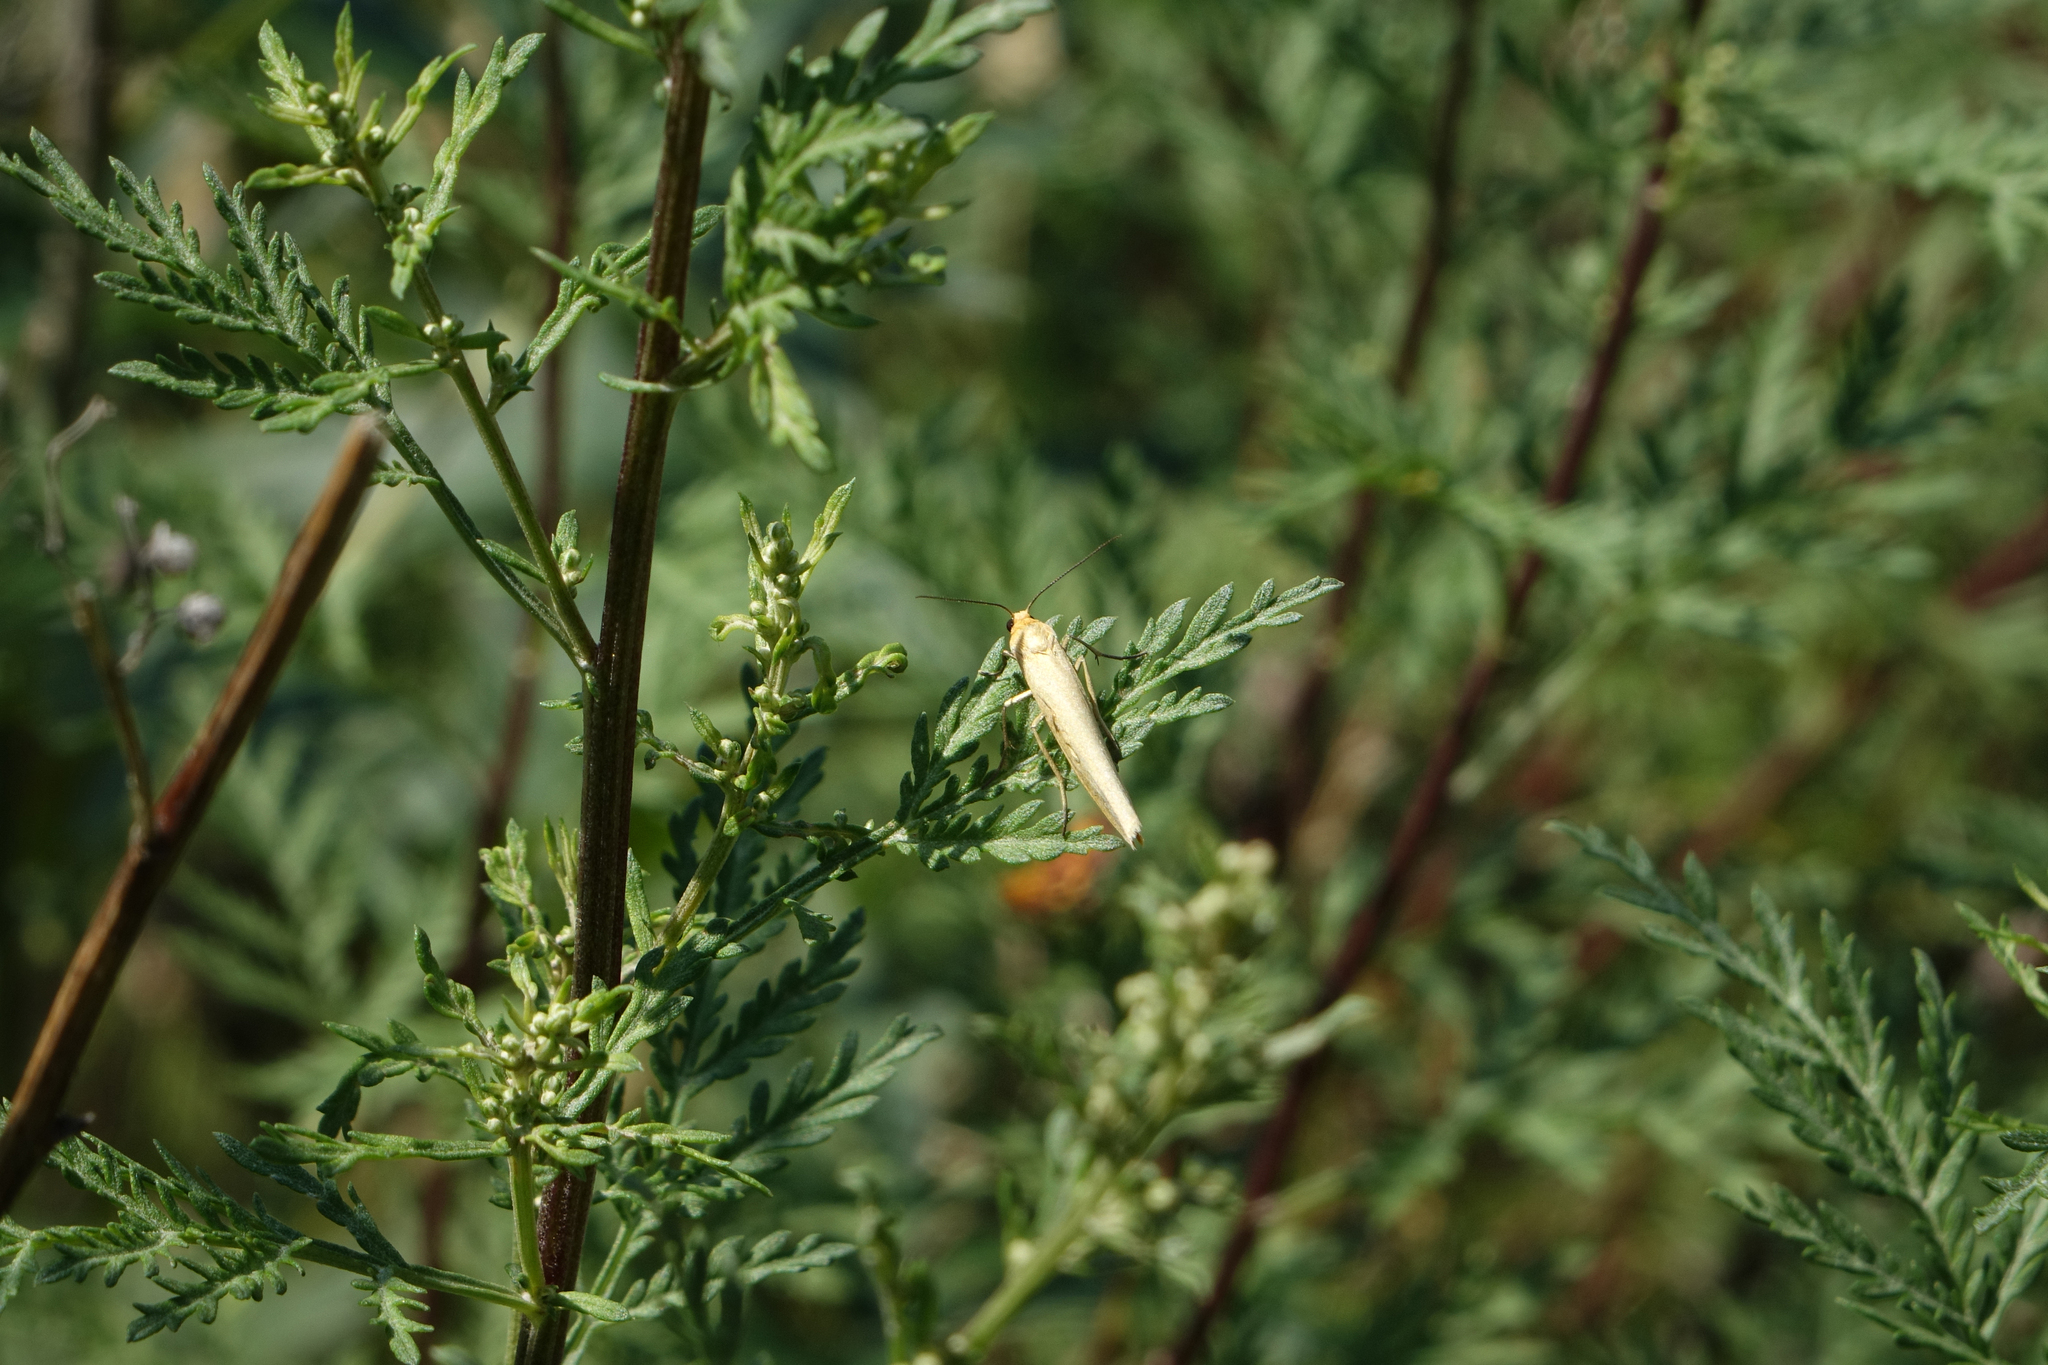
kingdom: Plantae
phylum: Tracheophyta
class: Magnoliopsida
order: Asterales
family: Asteraceae
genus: Artemisia
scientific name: Artemisia gmelinii
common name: Gmelin's wormwood
